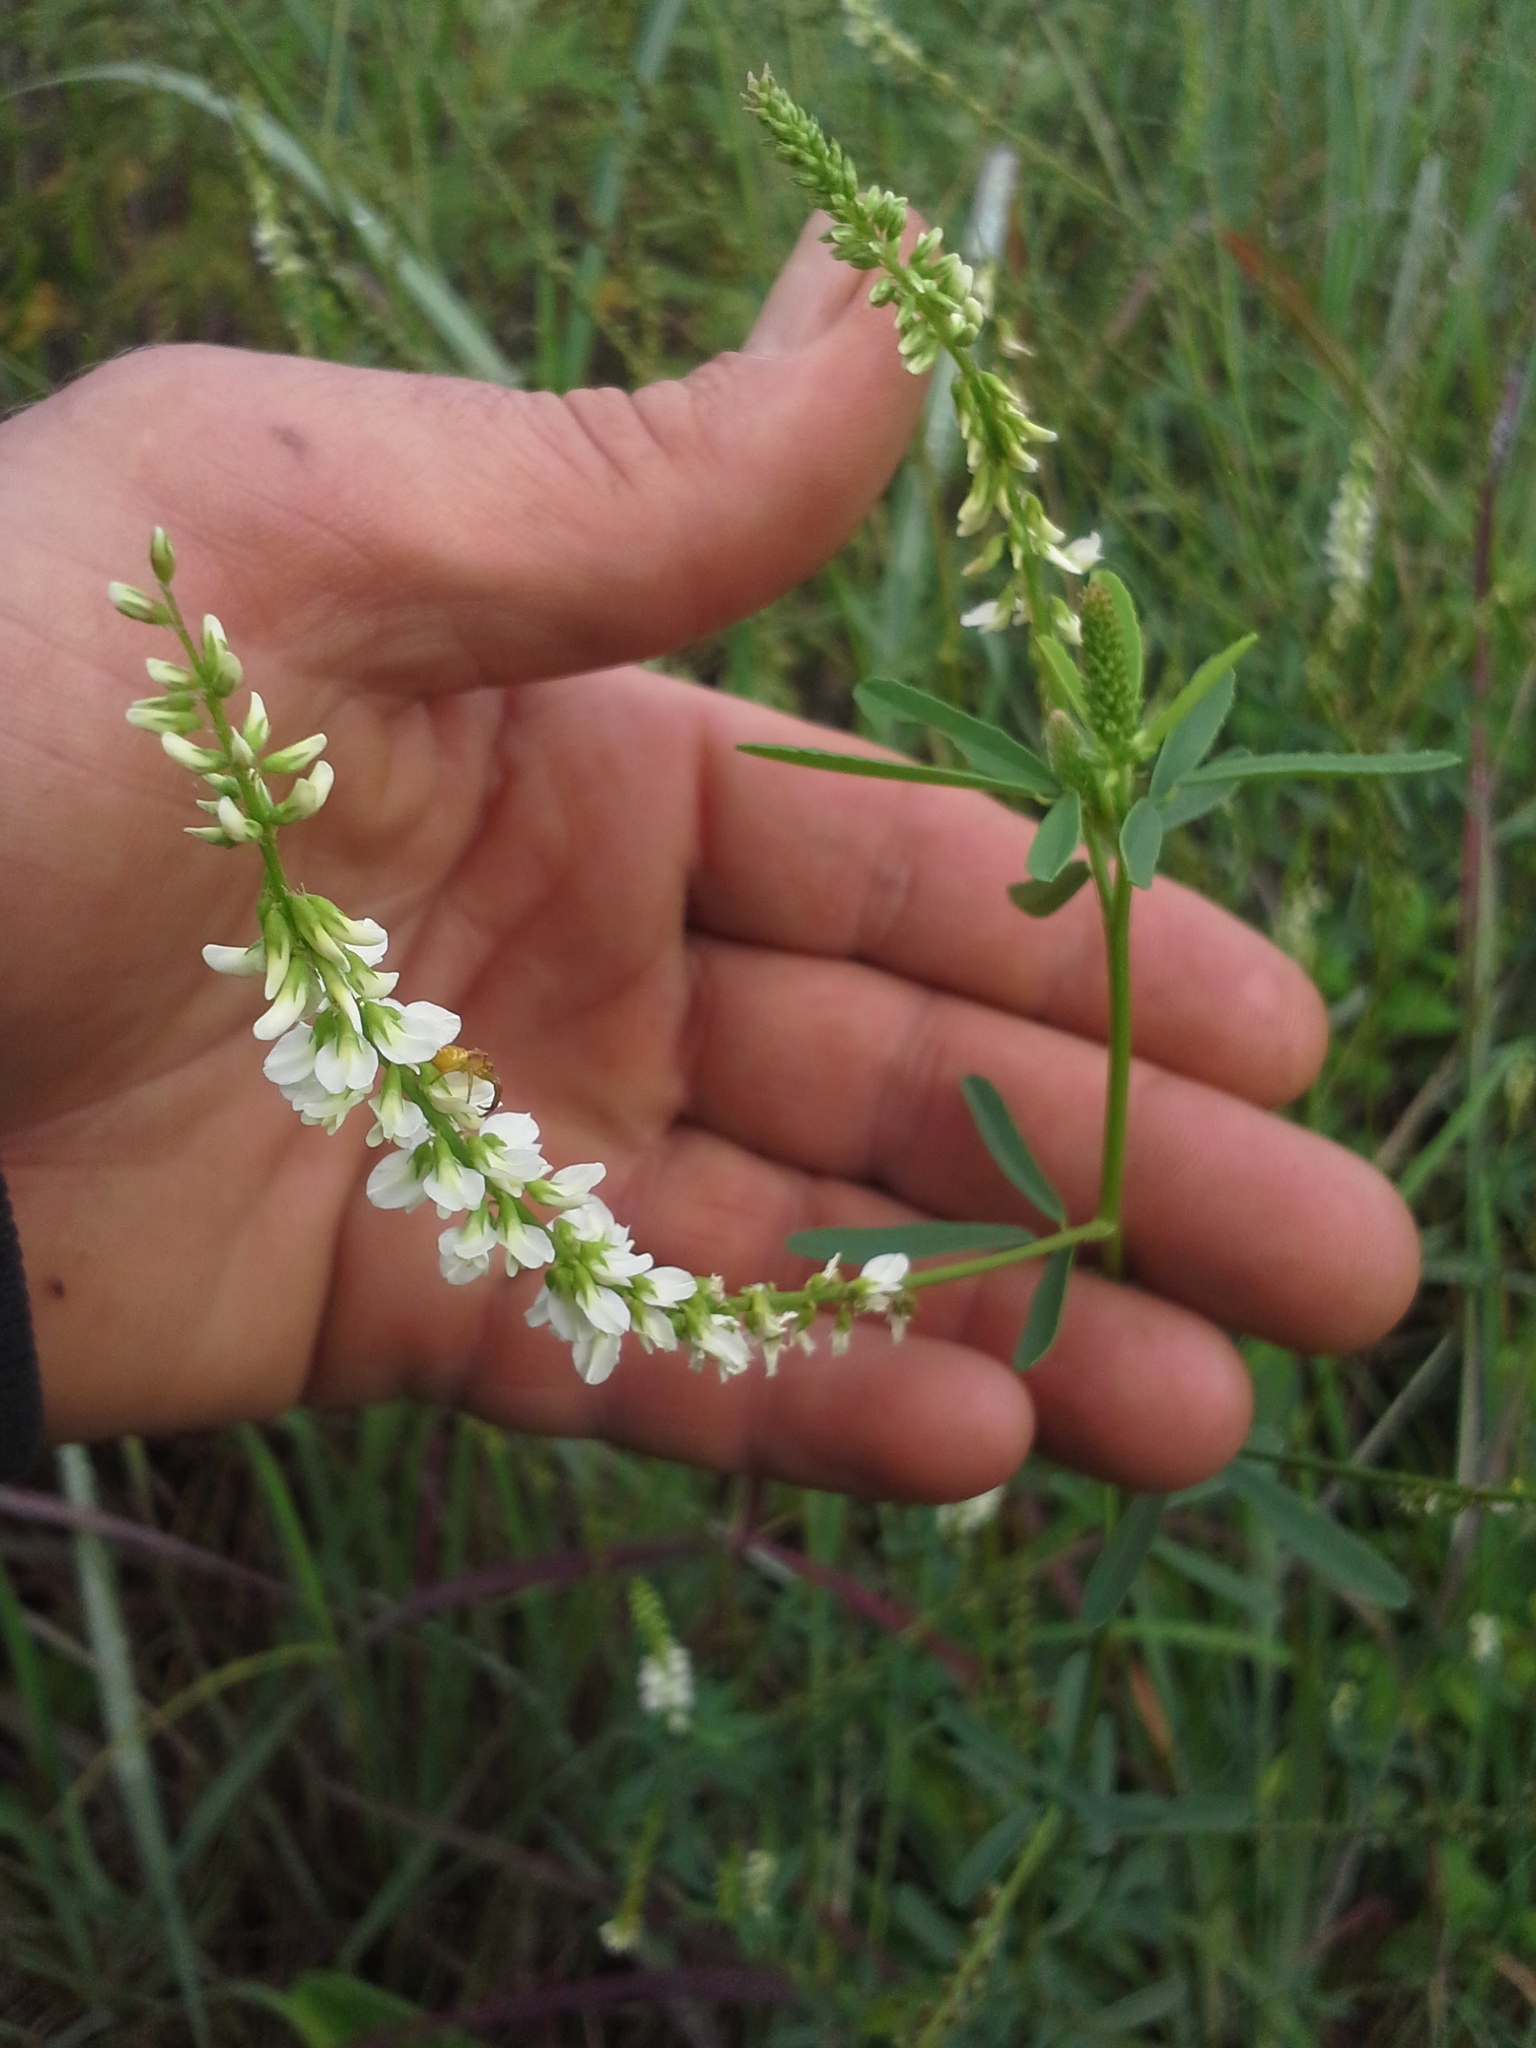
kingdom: Plantae
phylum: Tracheophyta
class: Magnoliopsida
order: Fabales
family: Fabaceae
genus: Melilotus
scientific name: Melilotus albus
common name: White melilot
